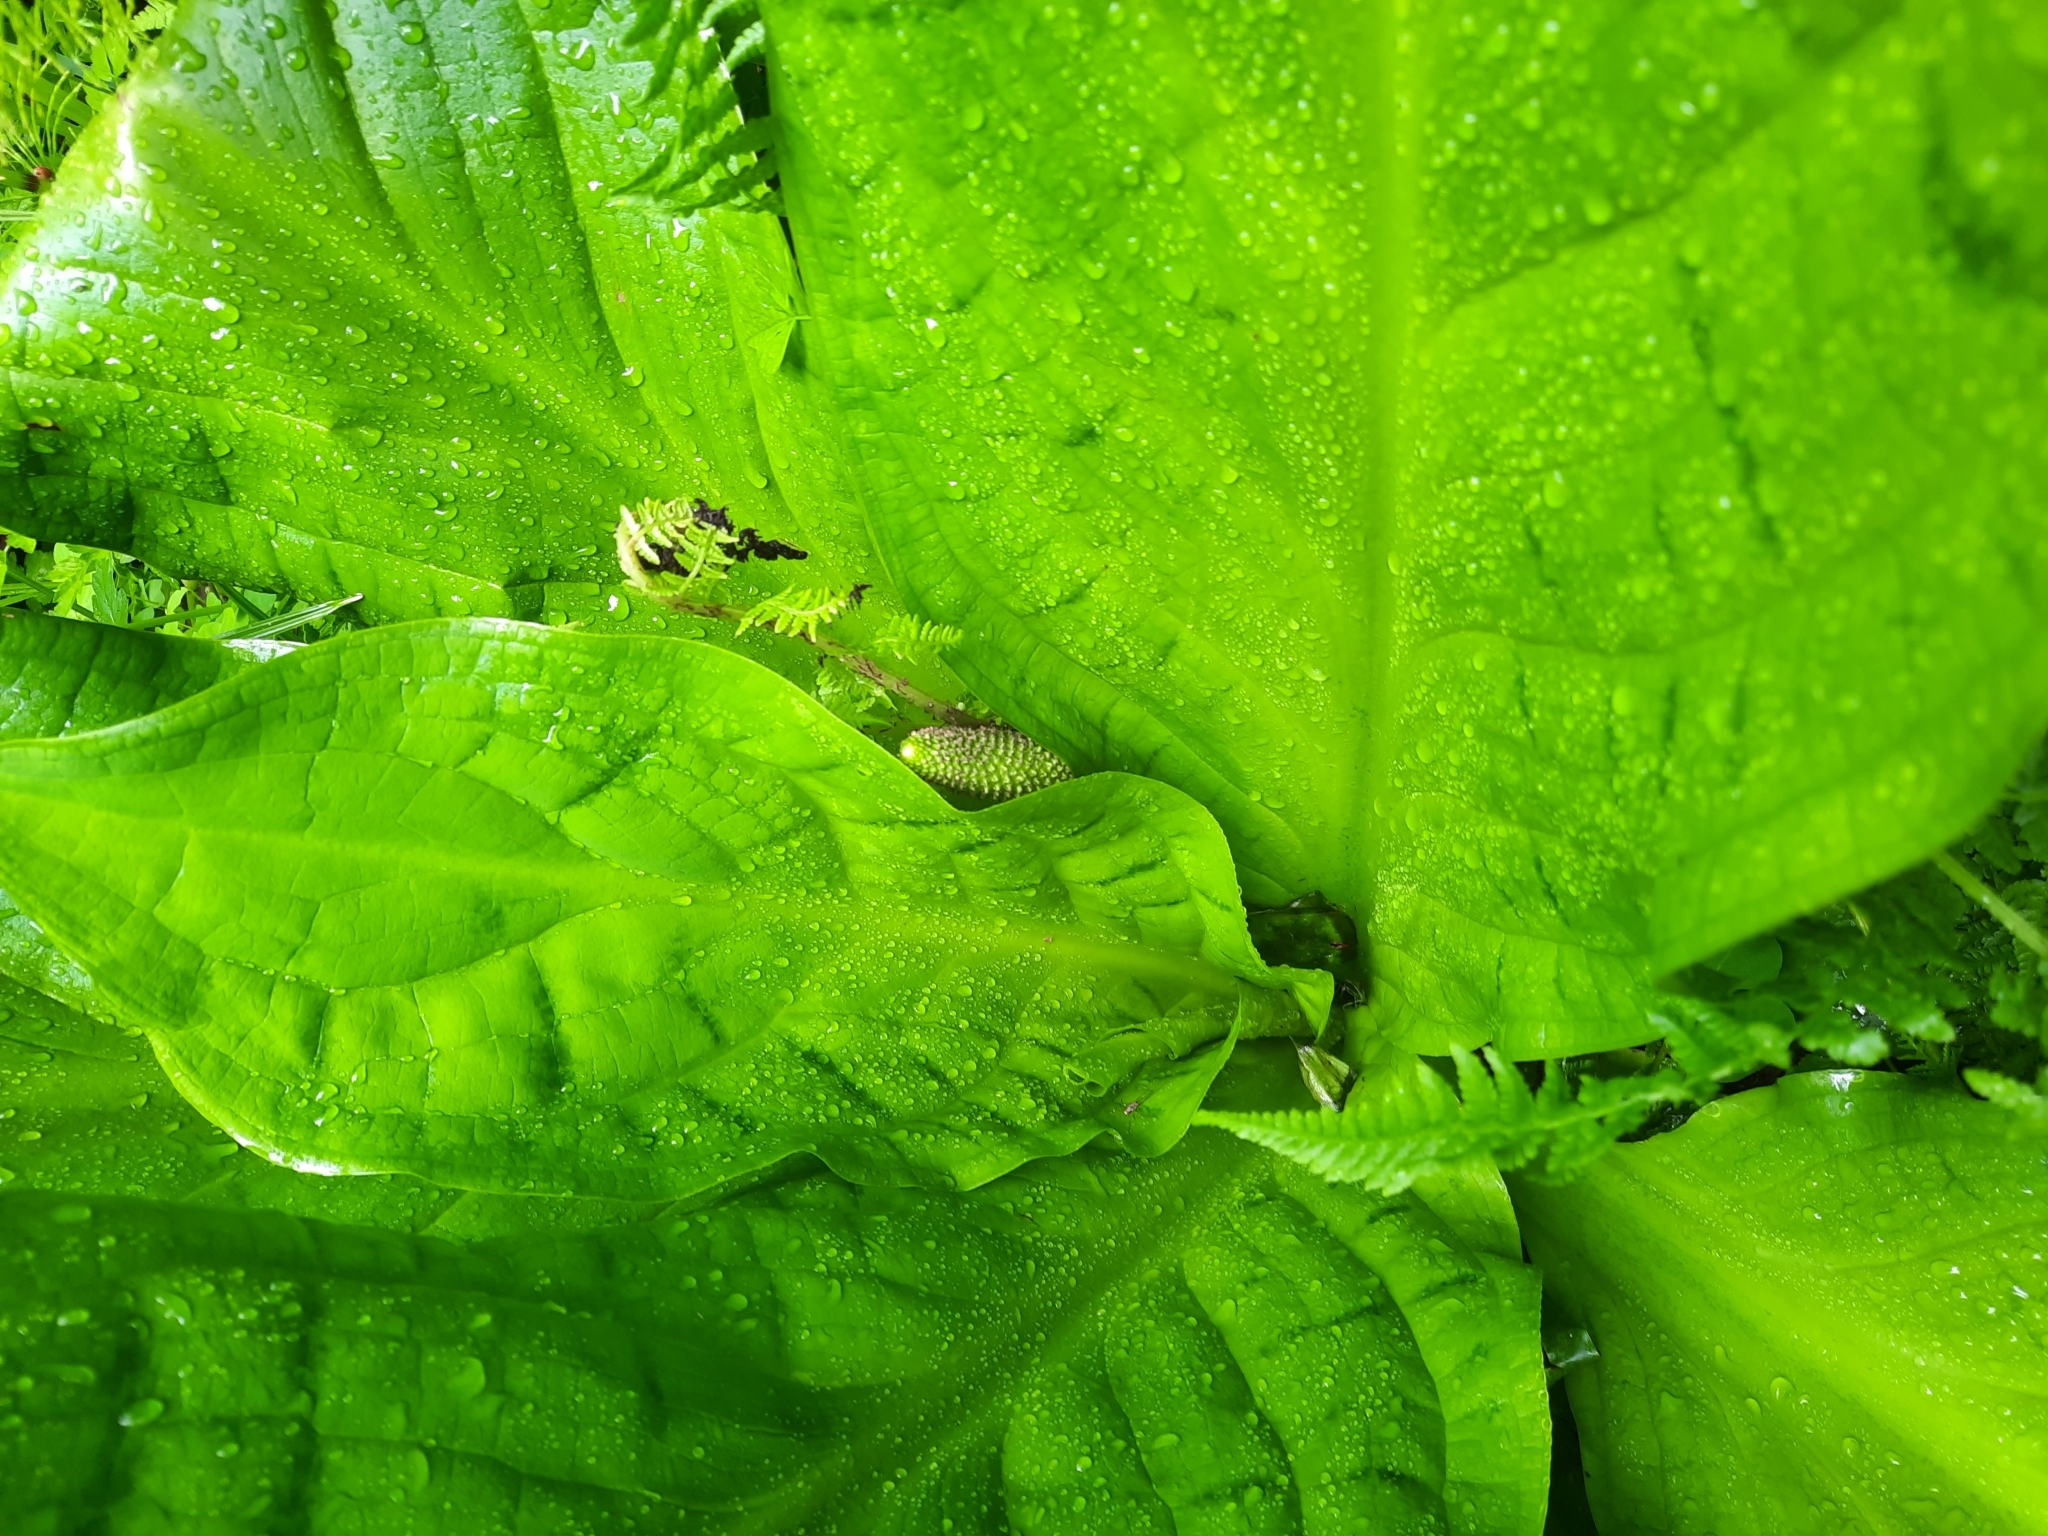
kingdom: Plantae
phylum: Tracheophyta
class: Liliopsida
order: Alismatales
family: Araceae
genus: Lysichiton
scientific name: Lysichiton americanus
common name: American skunk cabbage
